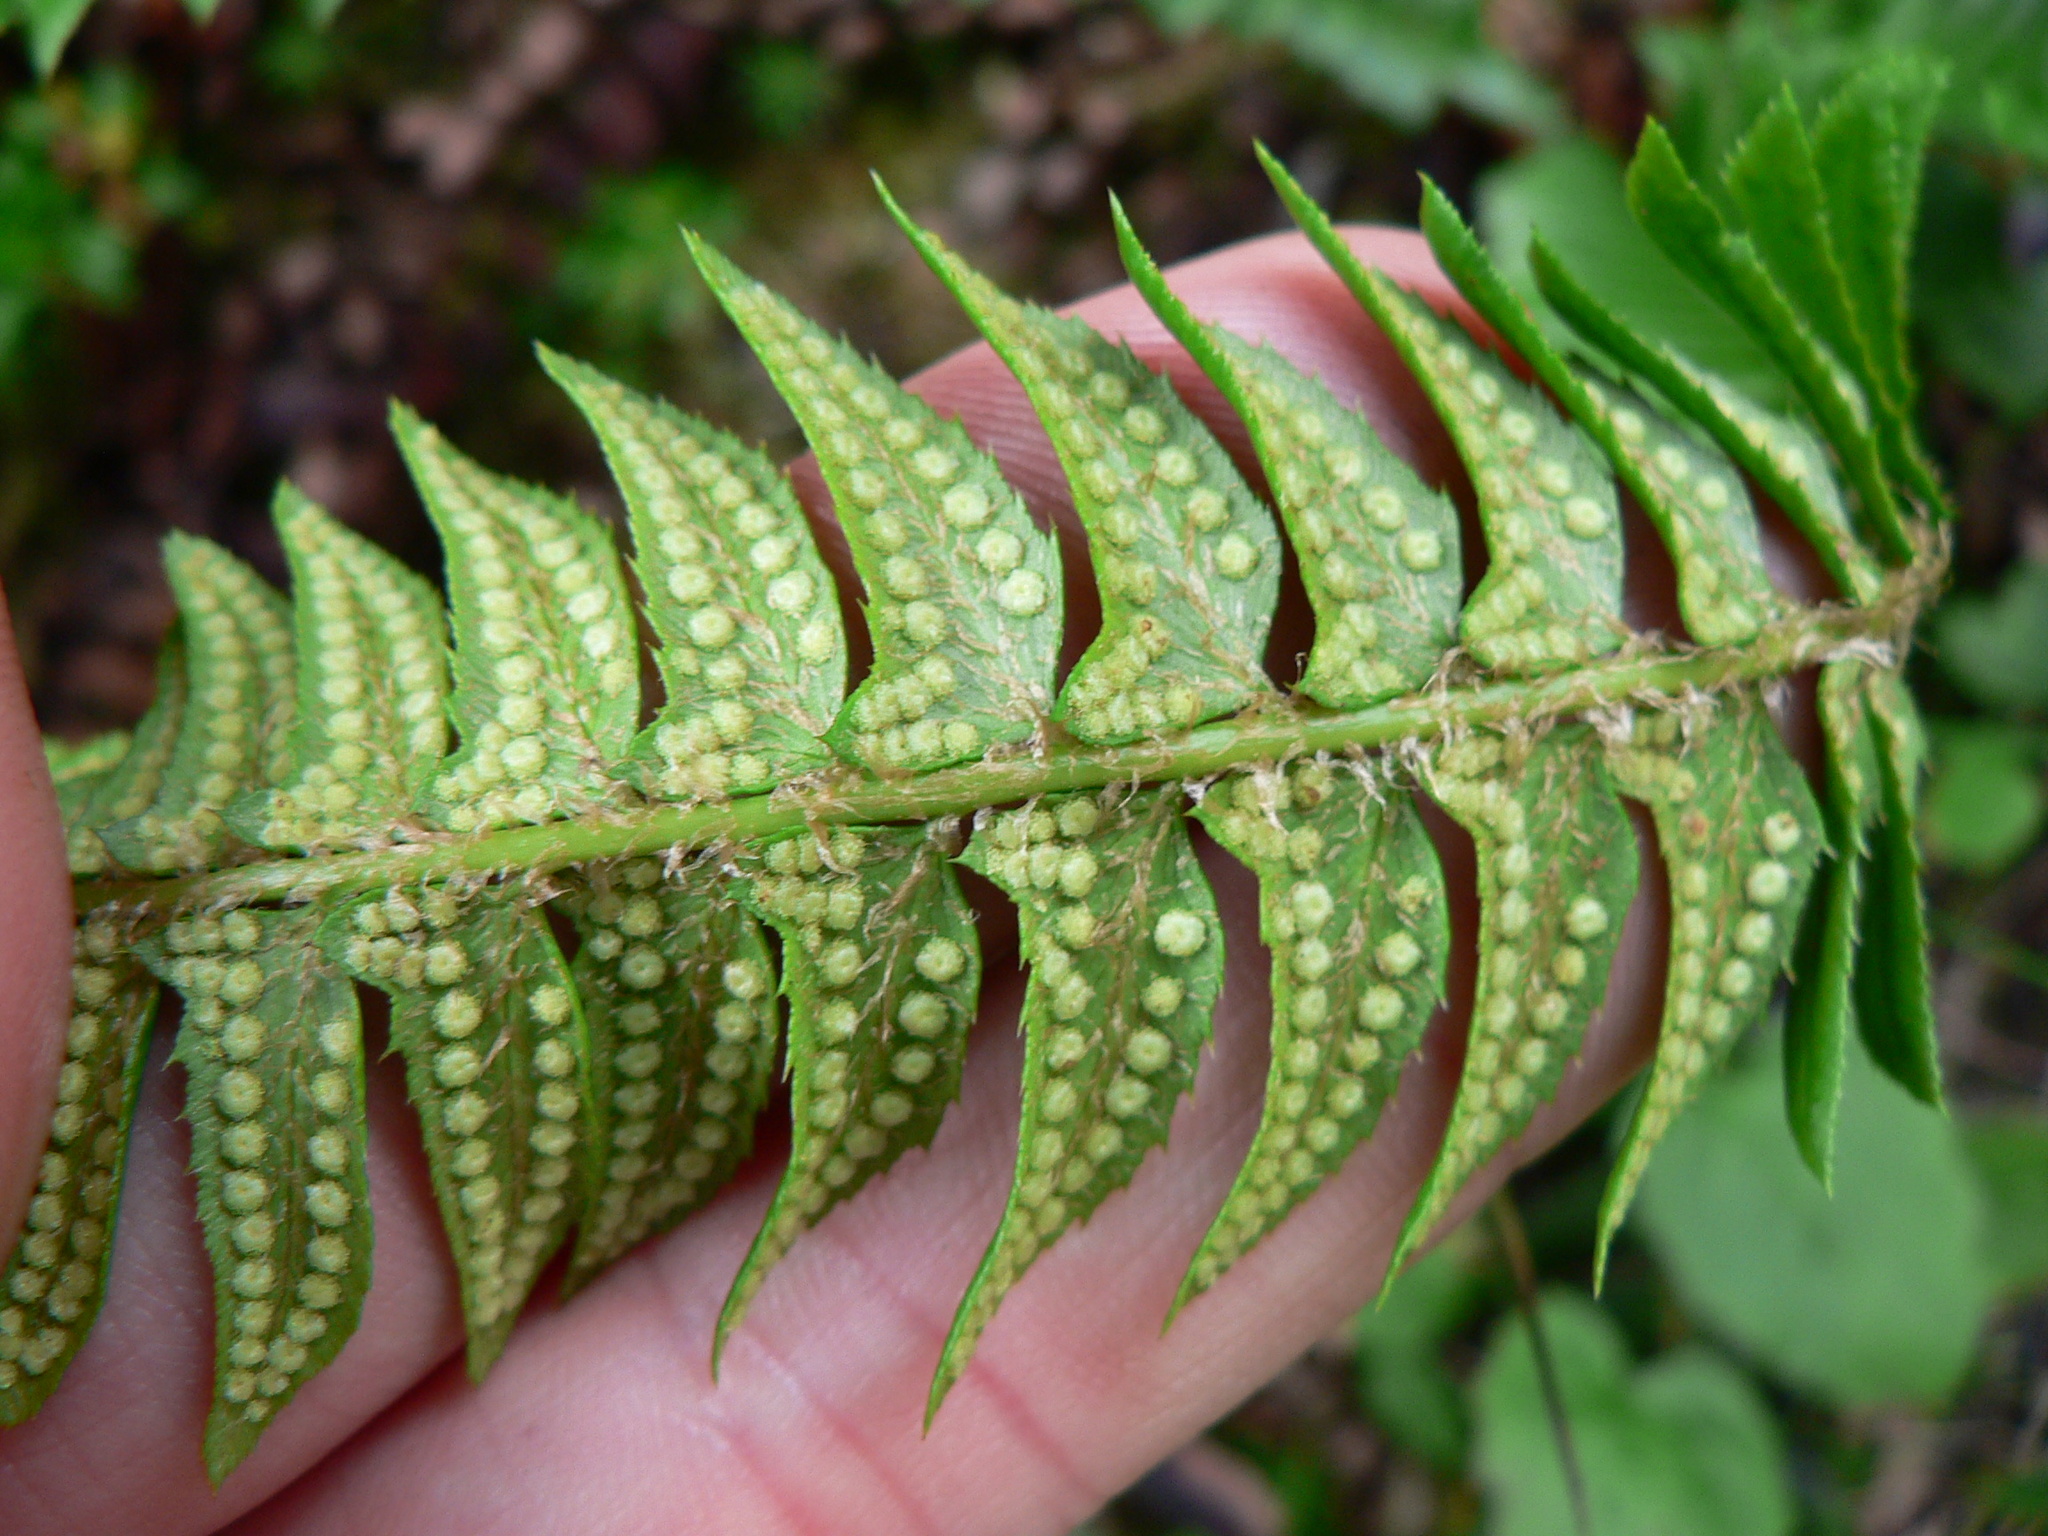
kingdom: Plantae
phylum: Tracheophyta
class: Polypodiopsida
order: Polypodiales
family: Dryopteridaceae
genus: Polystichum
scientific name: Polystichum lonchitis
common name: Holly fern
